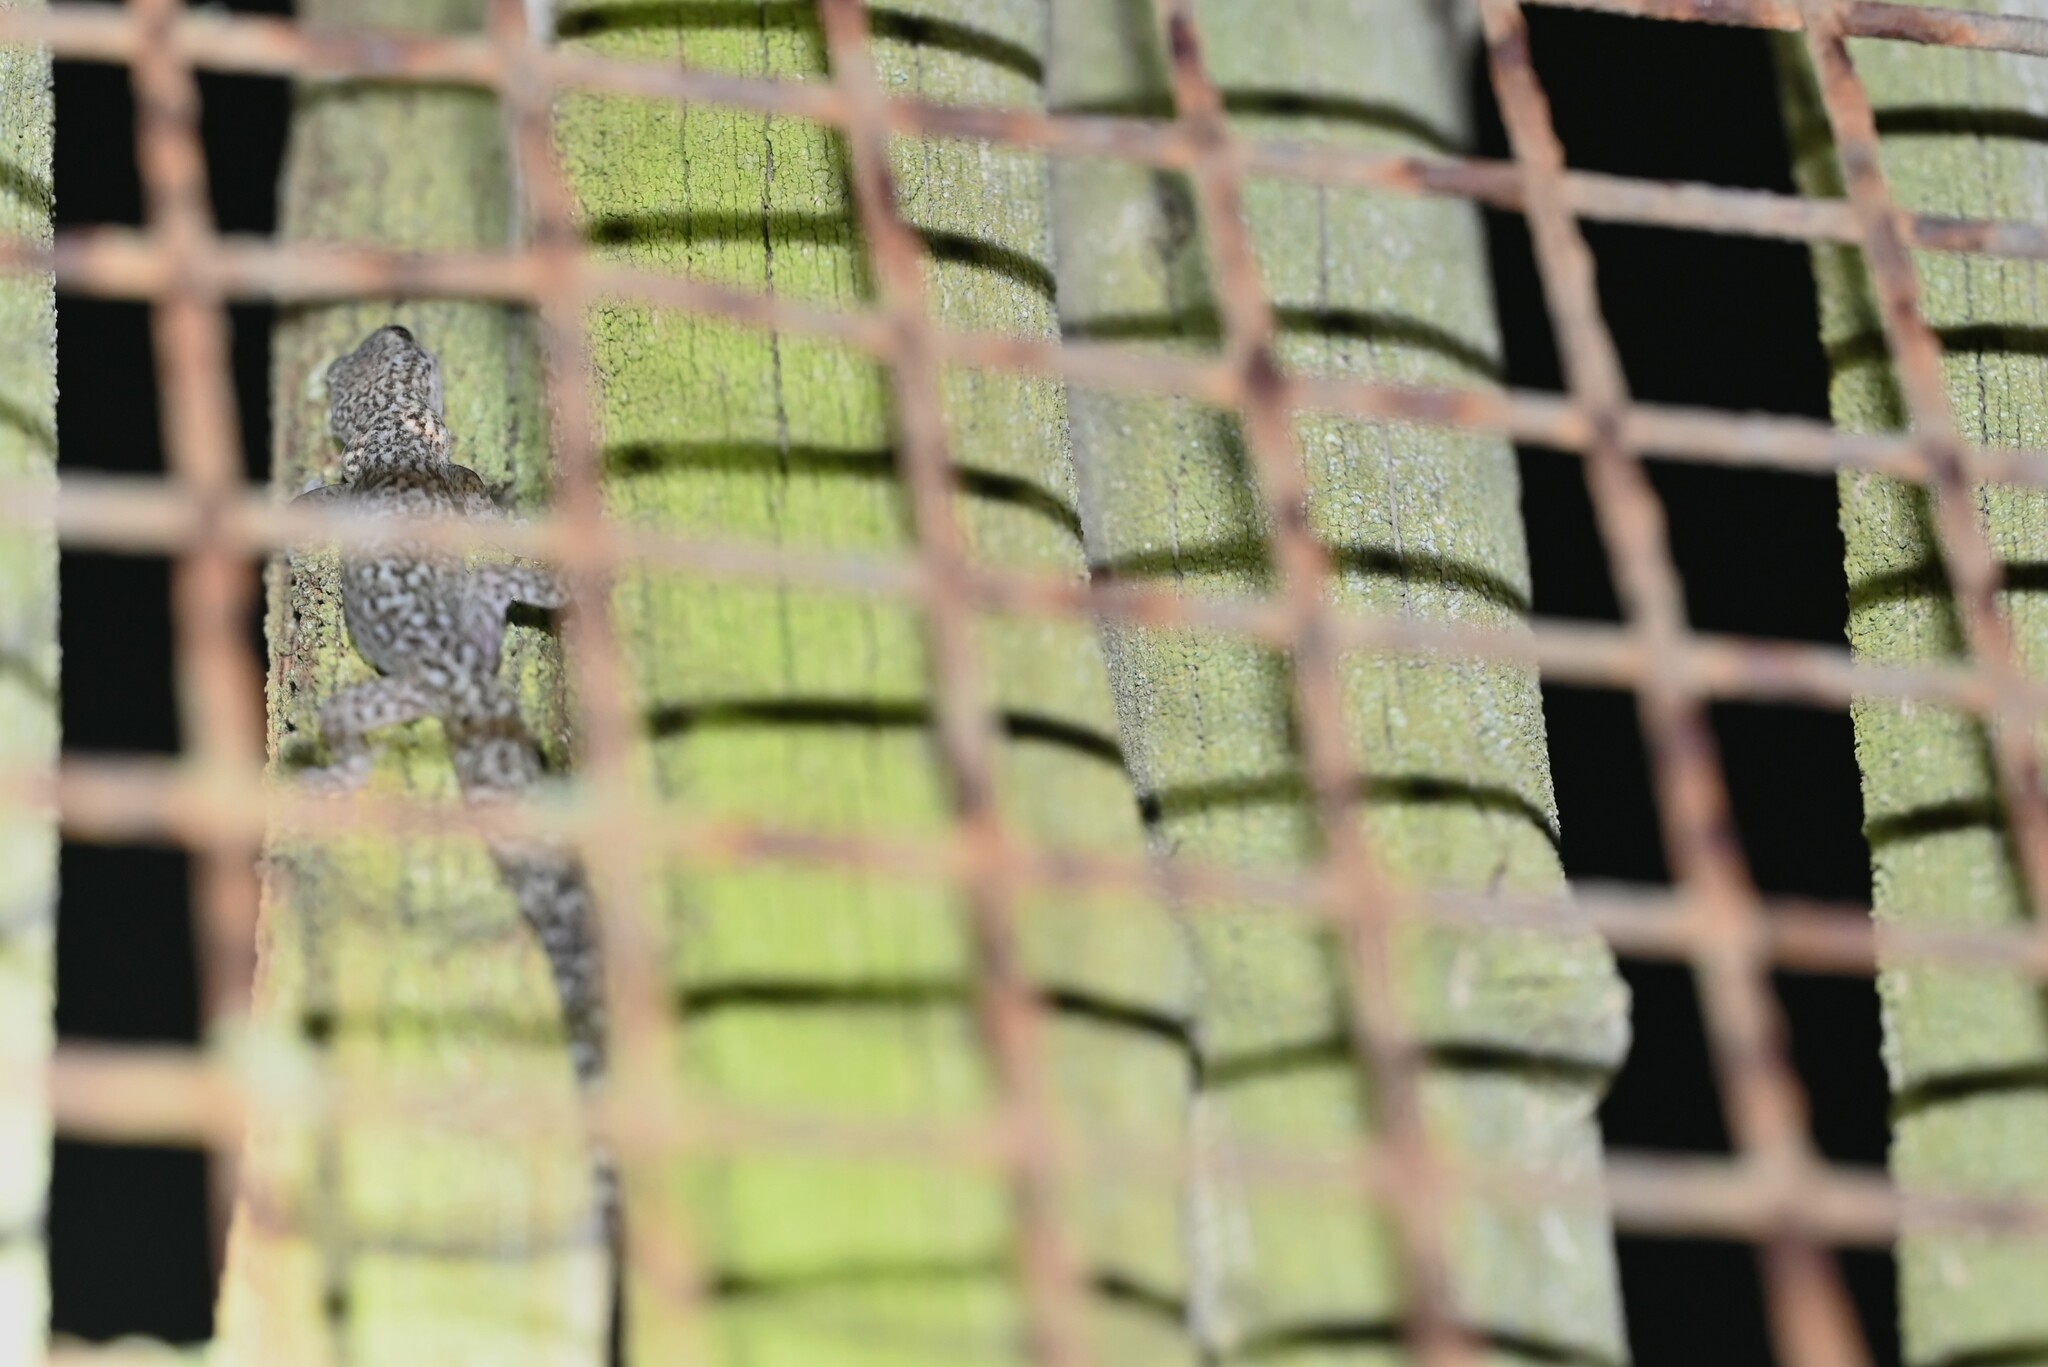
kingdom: Animalia
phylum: Chordata
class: Squamata
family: Gekkonidae
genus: Afrogecko
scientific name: Afrogecko porphyreus
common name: Marbled leaf-toed gecko
